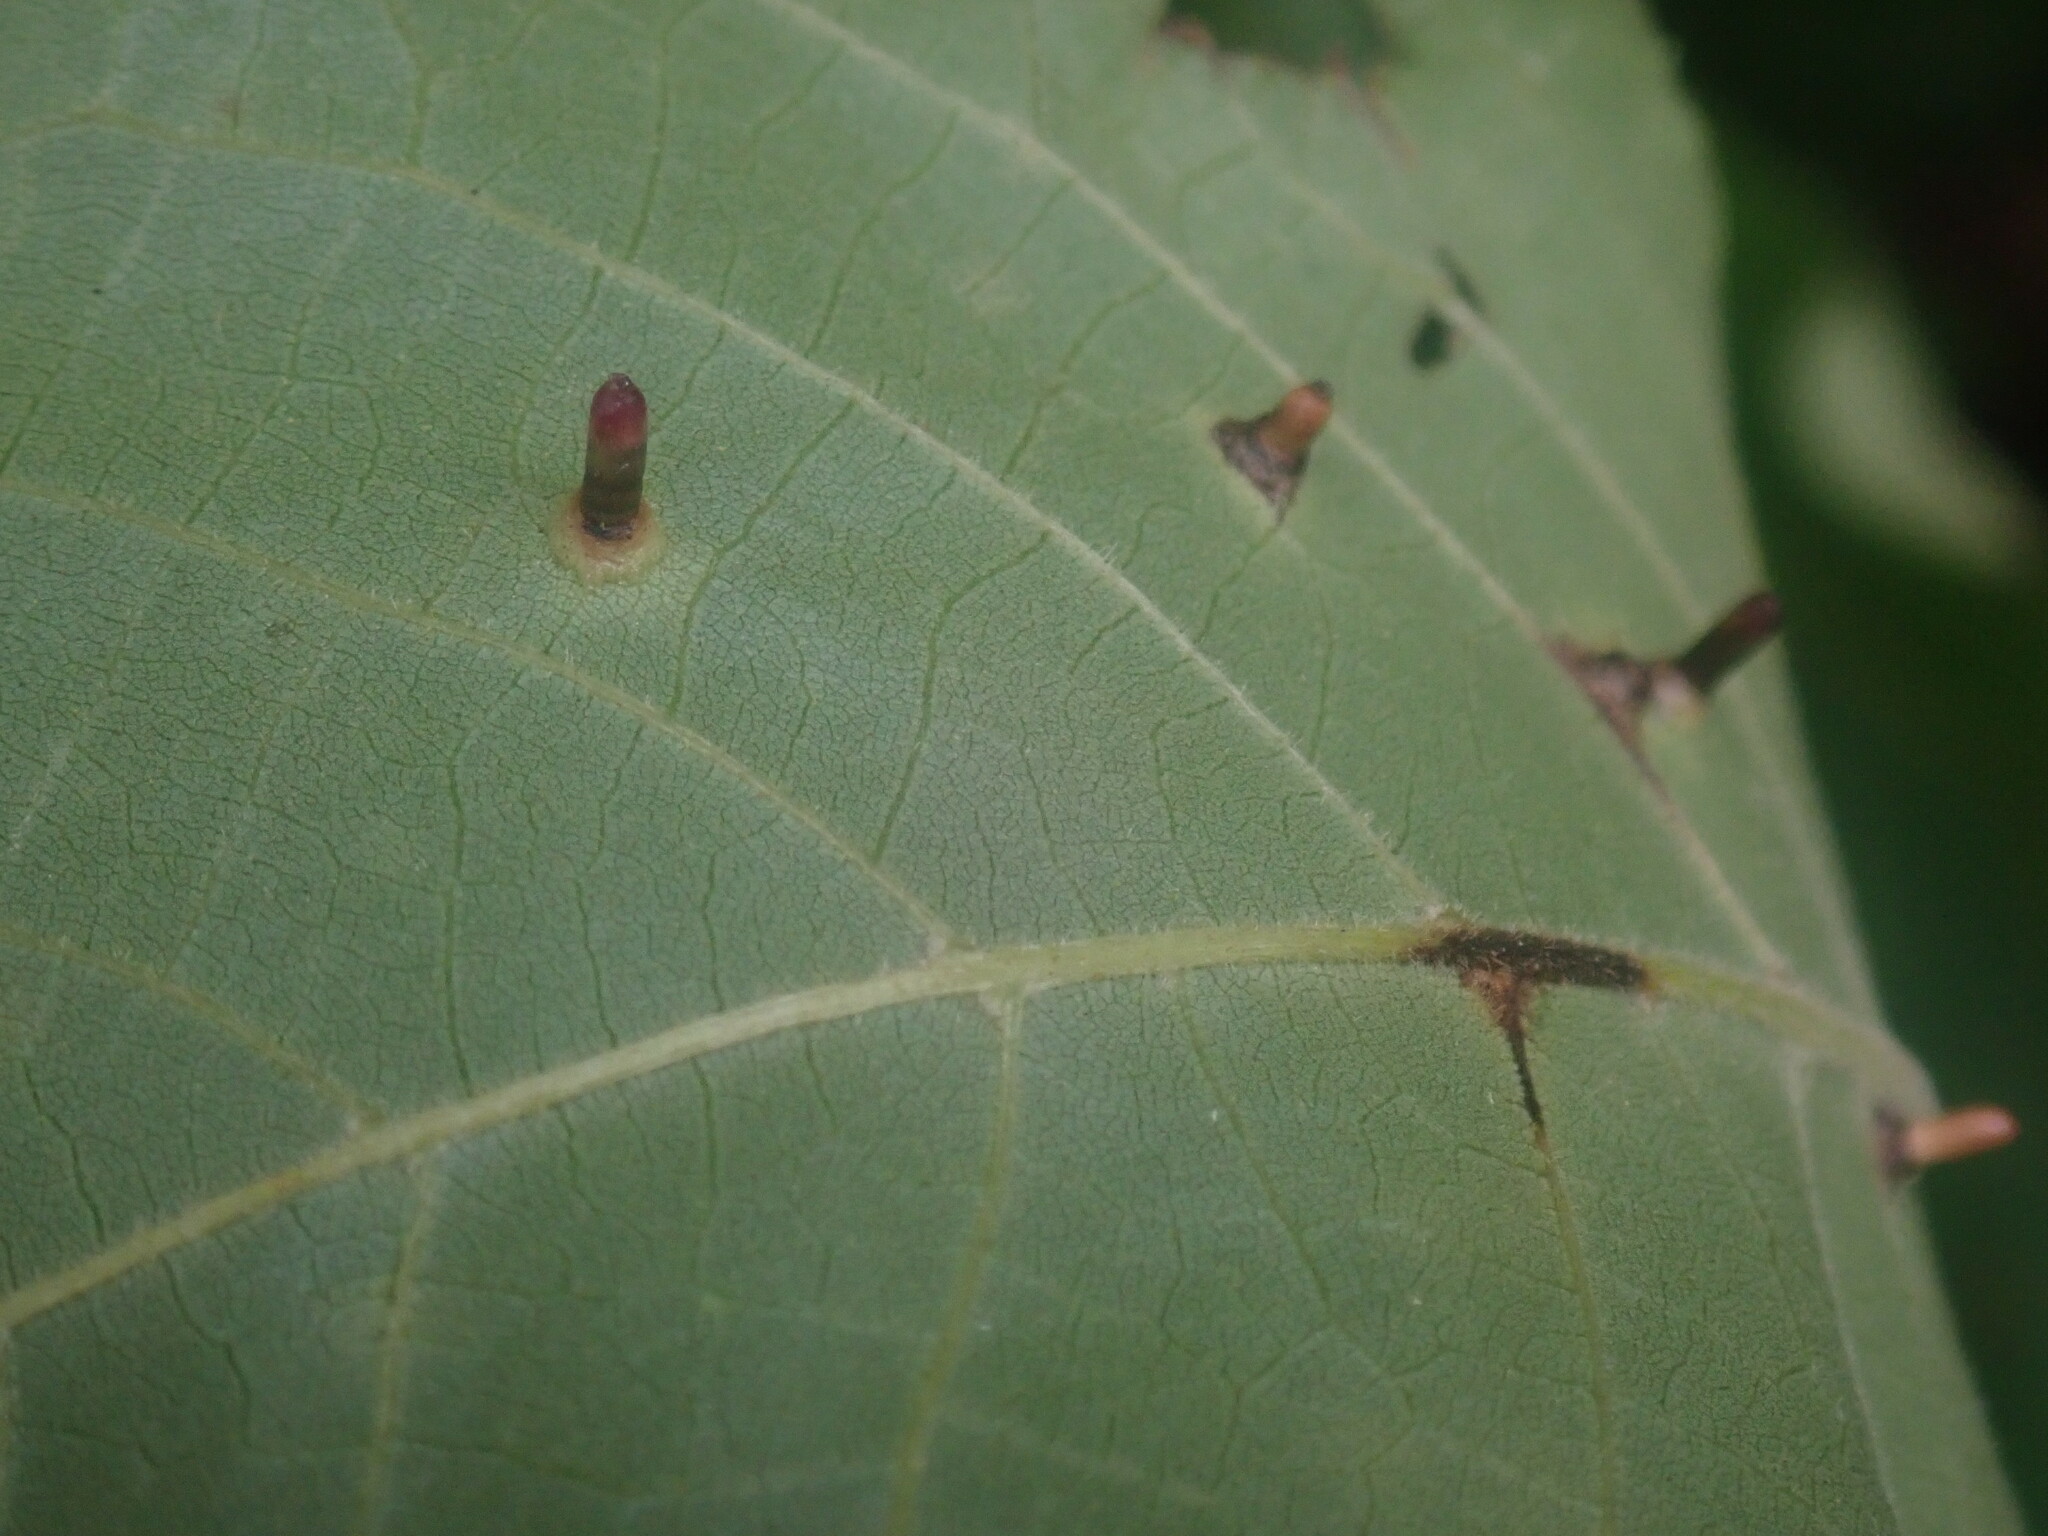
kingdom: Animalia
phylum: Arthropoda
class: Insecta
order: Diptera
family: Cecidomyiidae
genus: Caryomyia
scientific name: Caryomyia tubicola
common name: Hickory bullet gall midge
